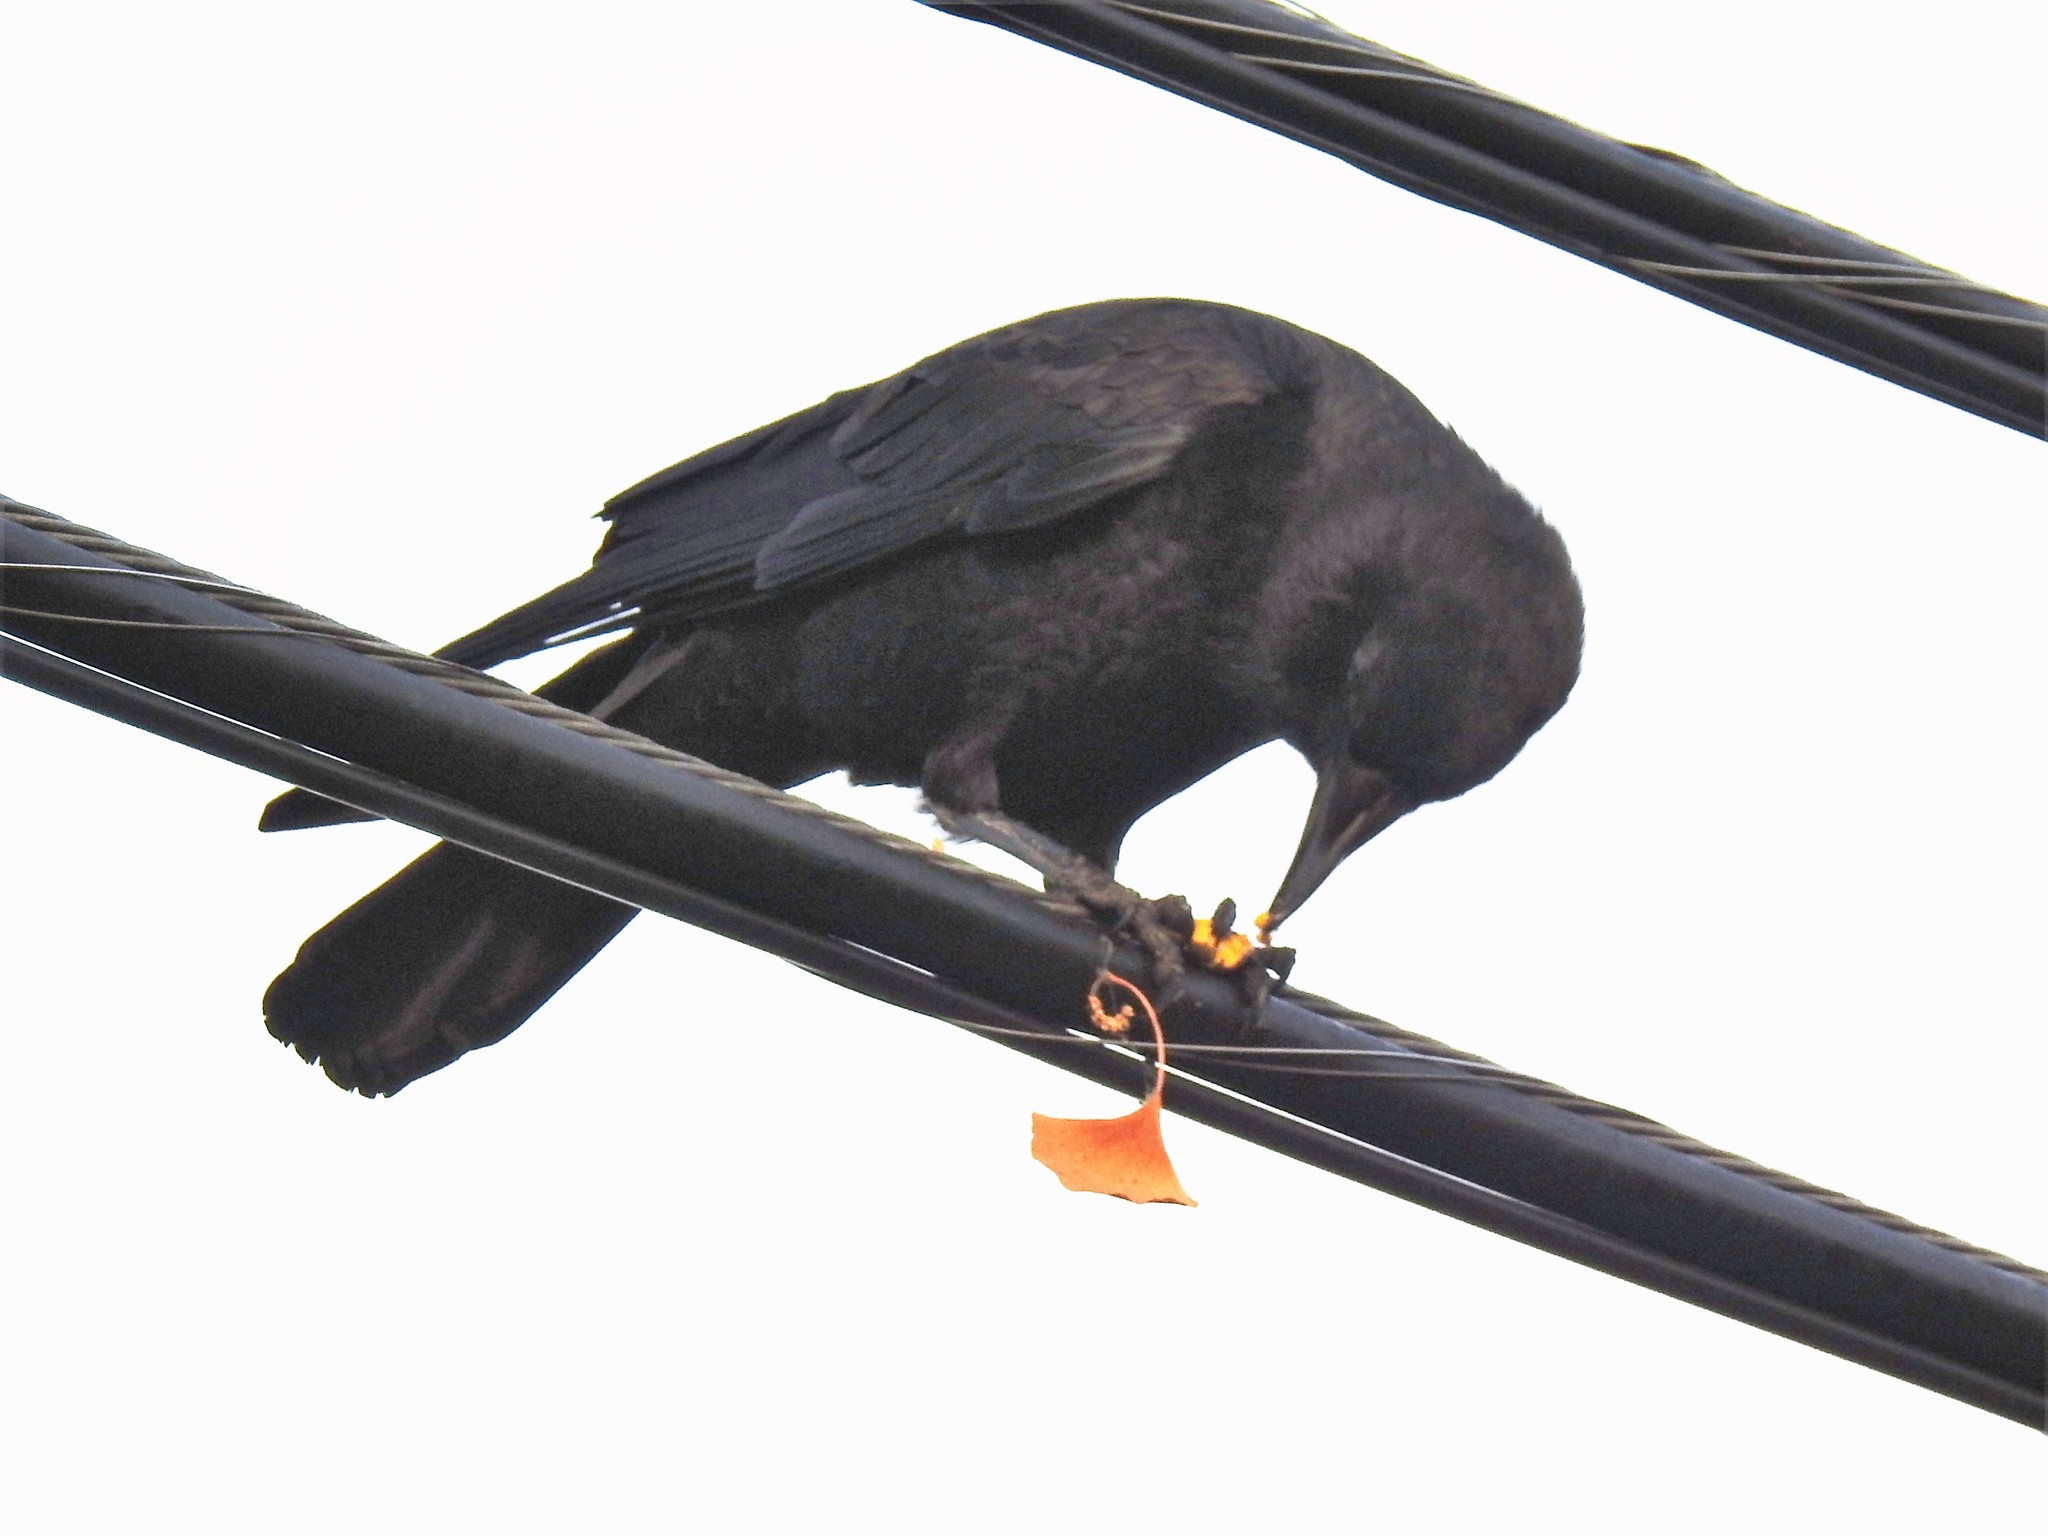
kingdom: Animalia
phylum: Chordata
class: Aves
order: Passeriformes
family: Corvidae
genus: Corvus
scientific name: Corvus brachyrhynchos
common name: American crow
